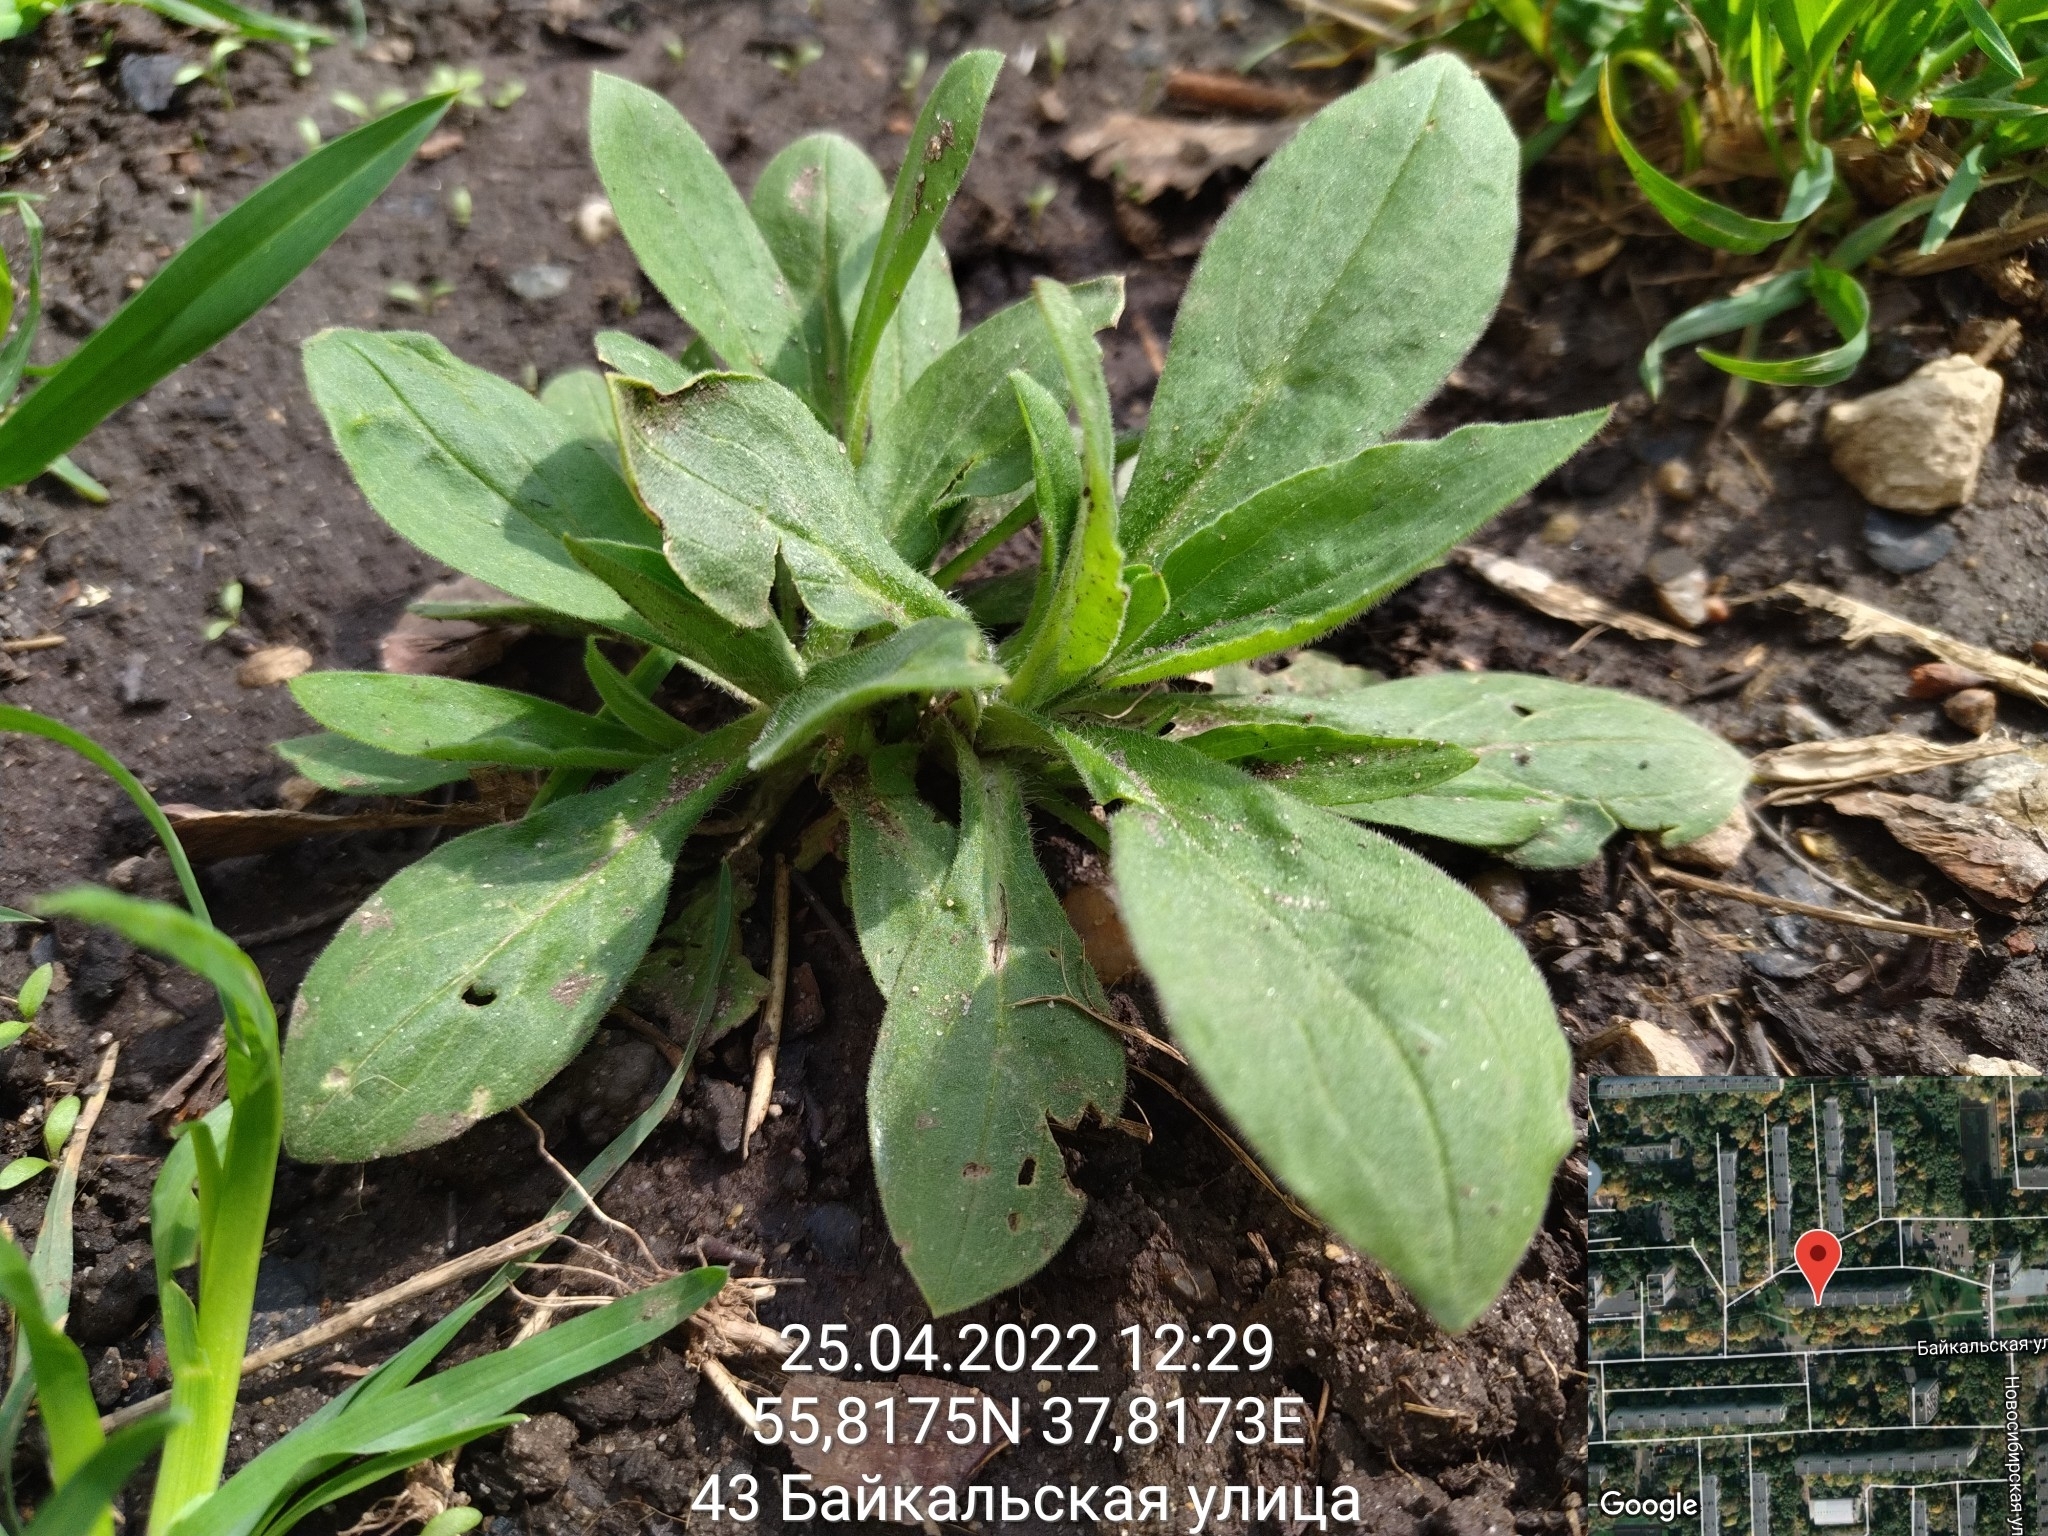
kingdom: Plantae
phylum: Tracheophyta
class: Magnoliopsida
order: Caryophyllales
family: Caryophyllaceae
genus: Silene
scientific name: Silene latifolia
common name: White campion
